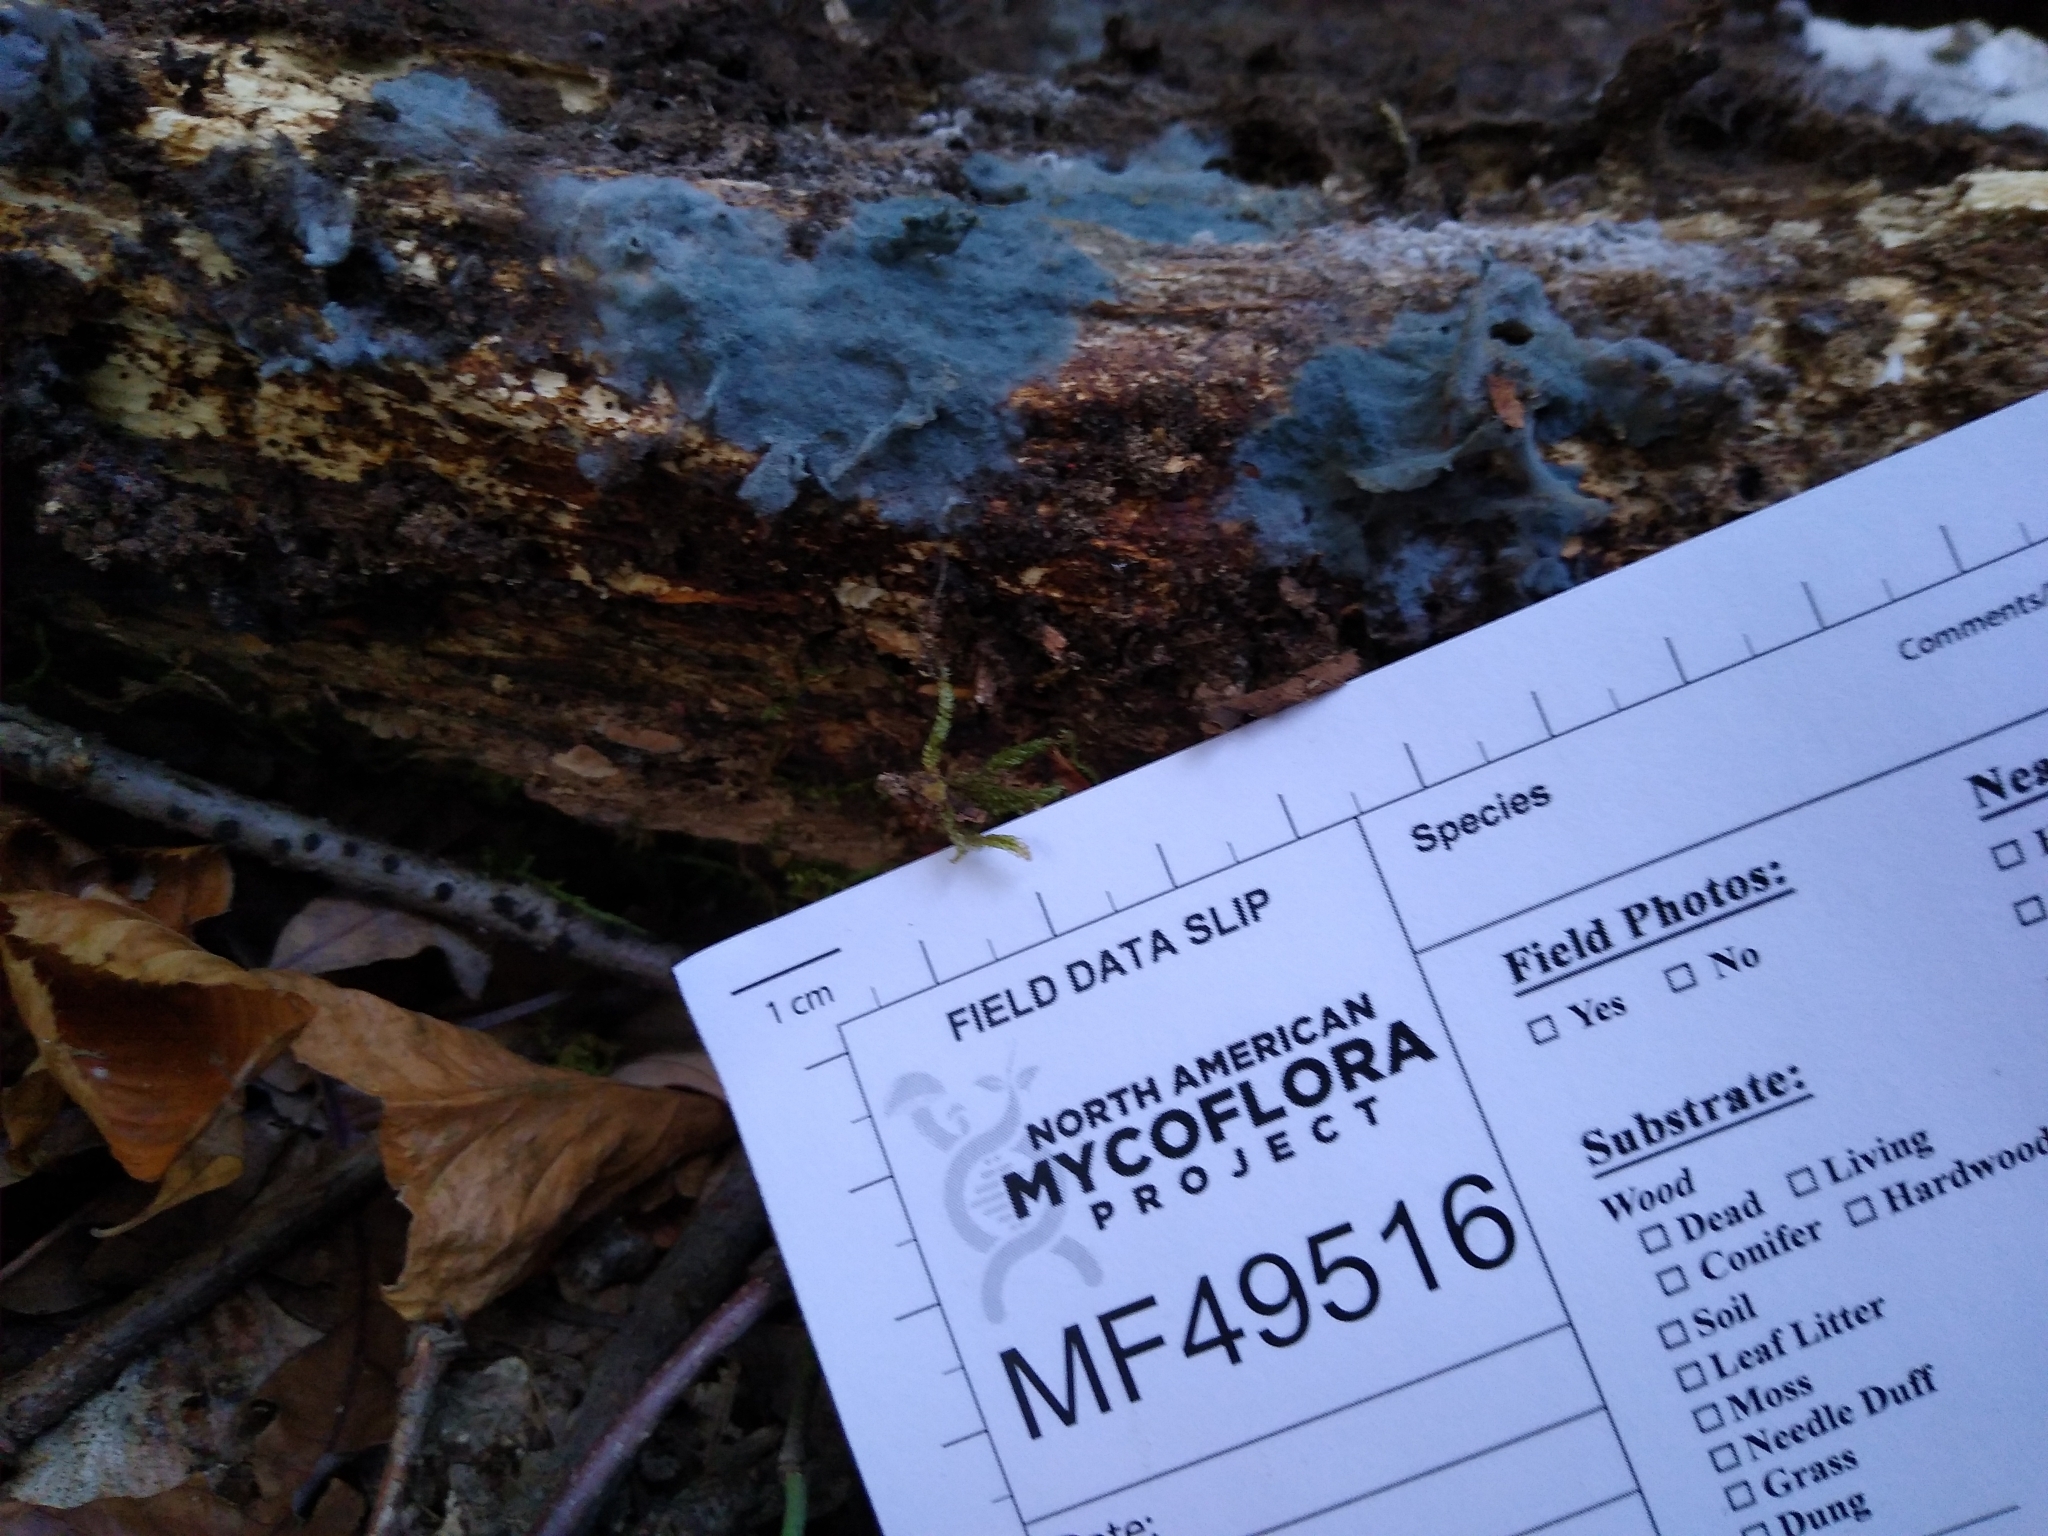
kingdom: Fungi
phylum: Basidiomycota
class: Agaricomycetes
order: Atheliales
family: Atheliaceae
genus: Byssocorticium
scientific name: Byssocorticium atrovirens
